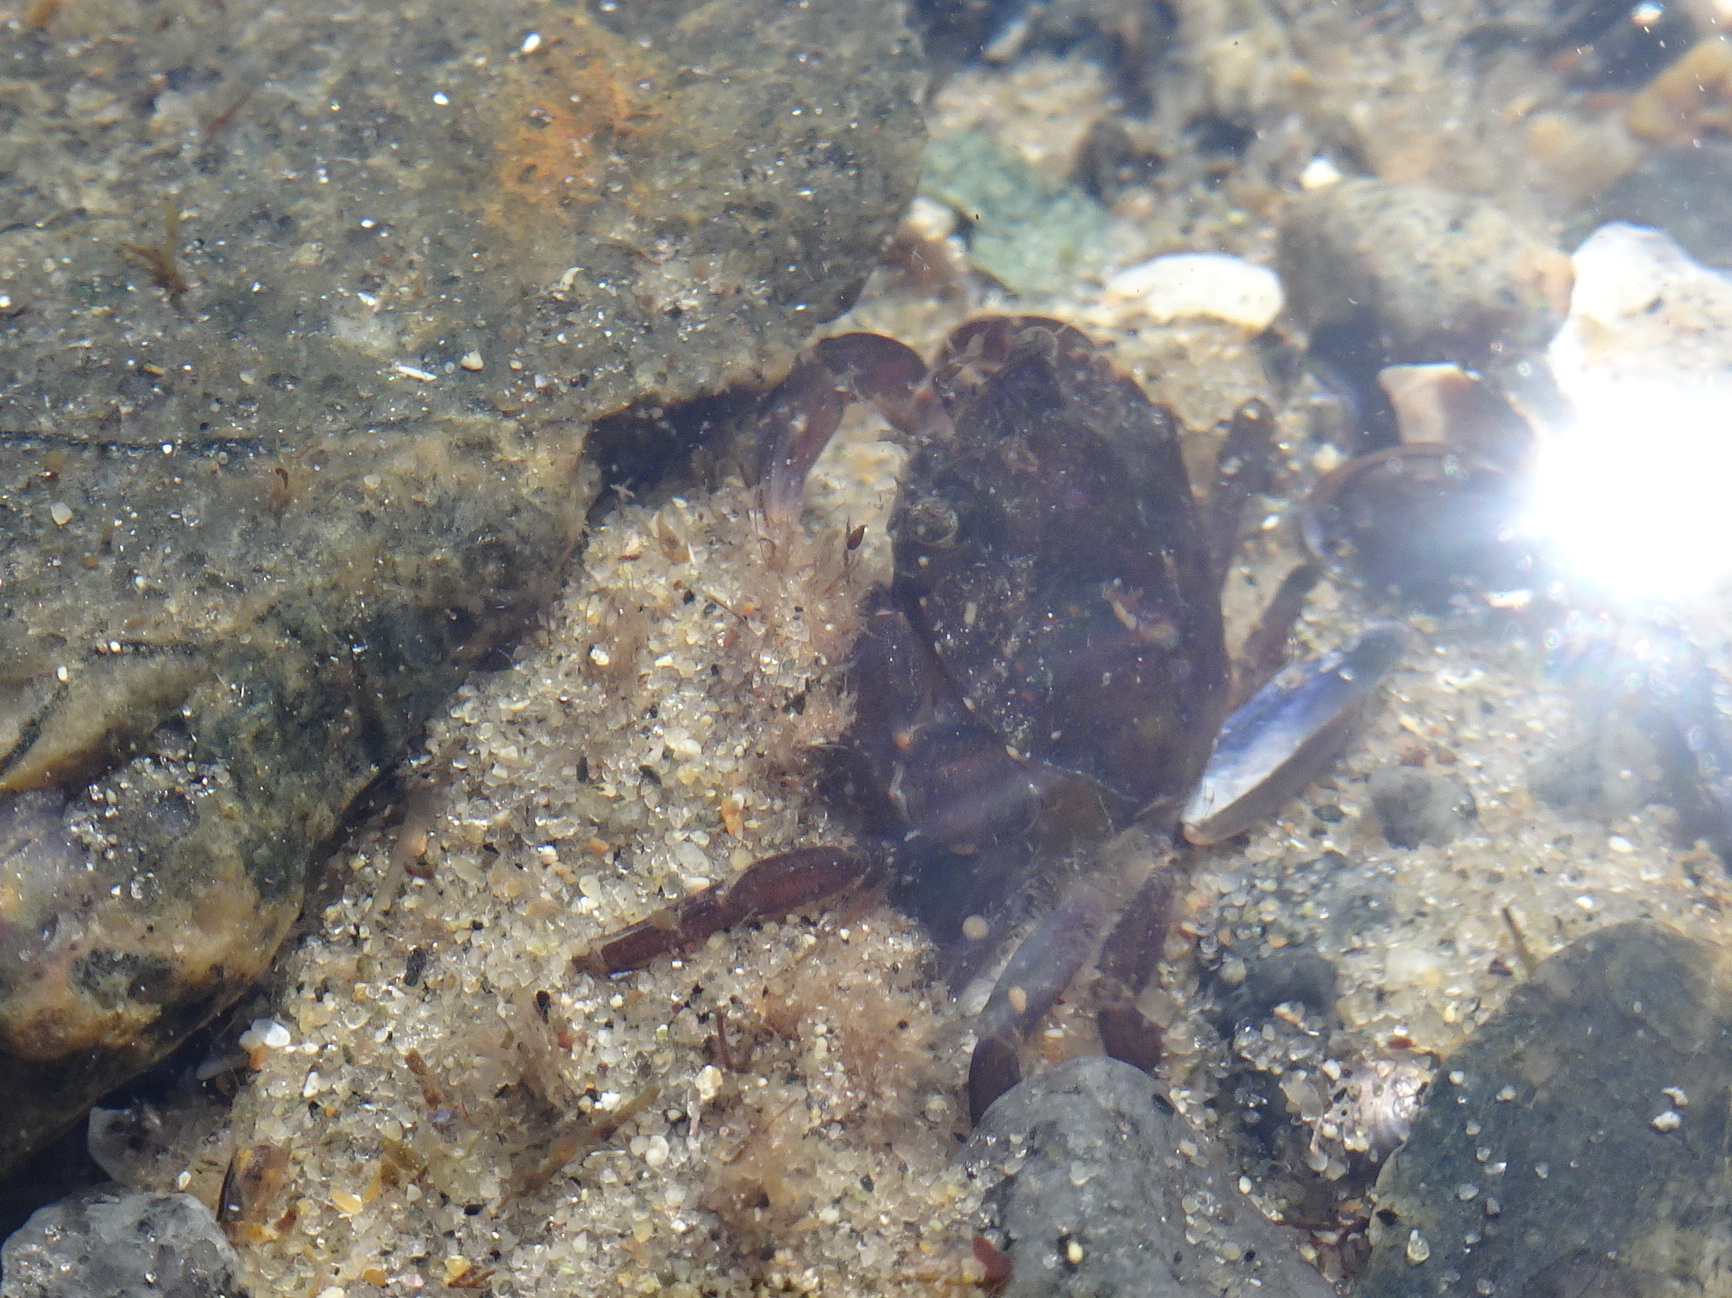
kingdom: Animalia
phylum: Arthropoda
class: Malacostraca
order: Decapoda
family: Carcinidae
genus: Carcinus
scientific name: Carcinus maenas
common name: European green crab
